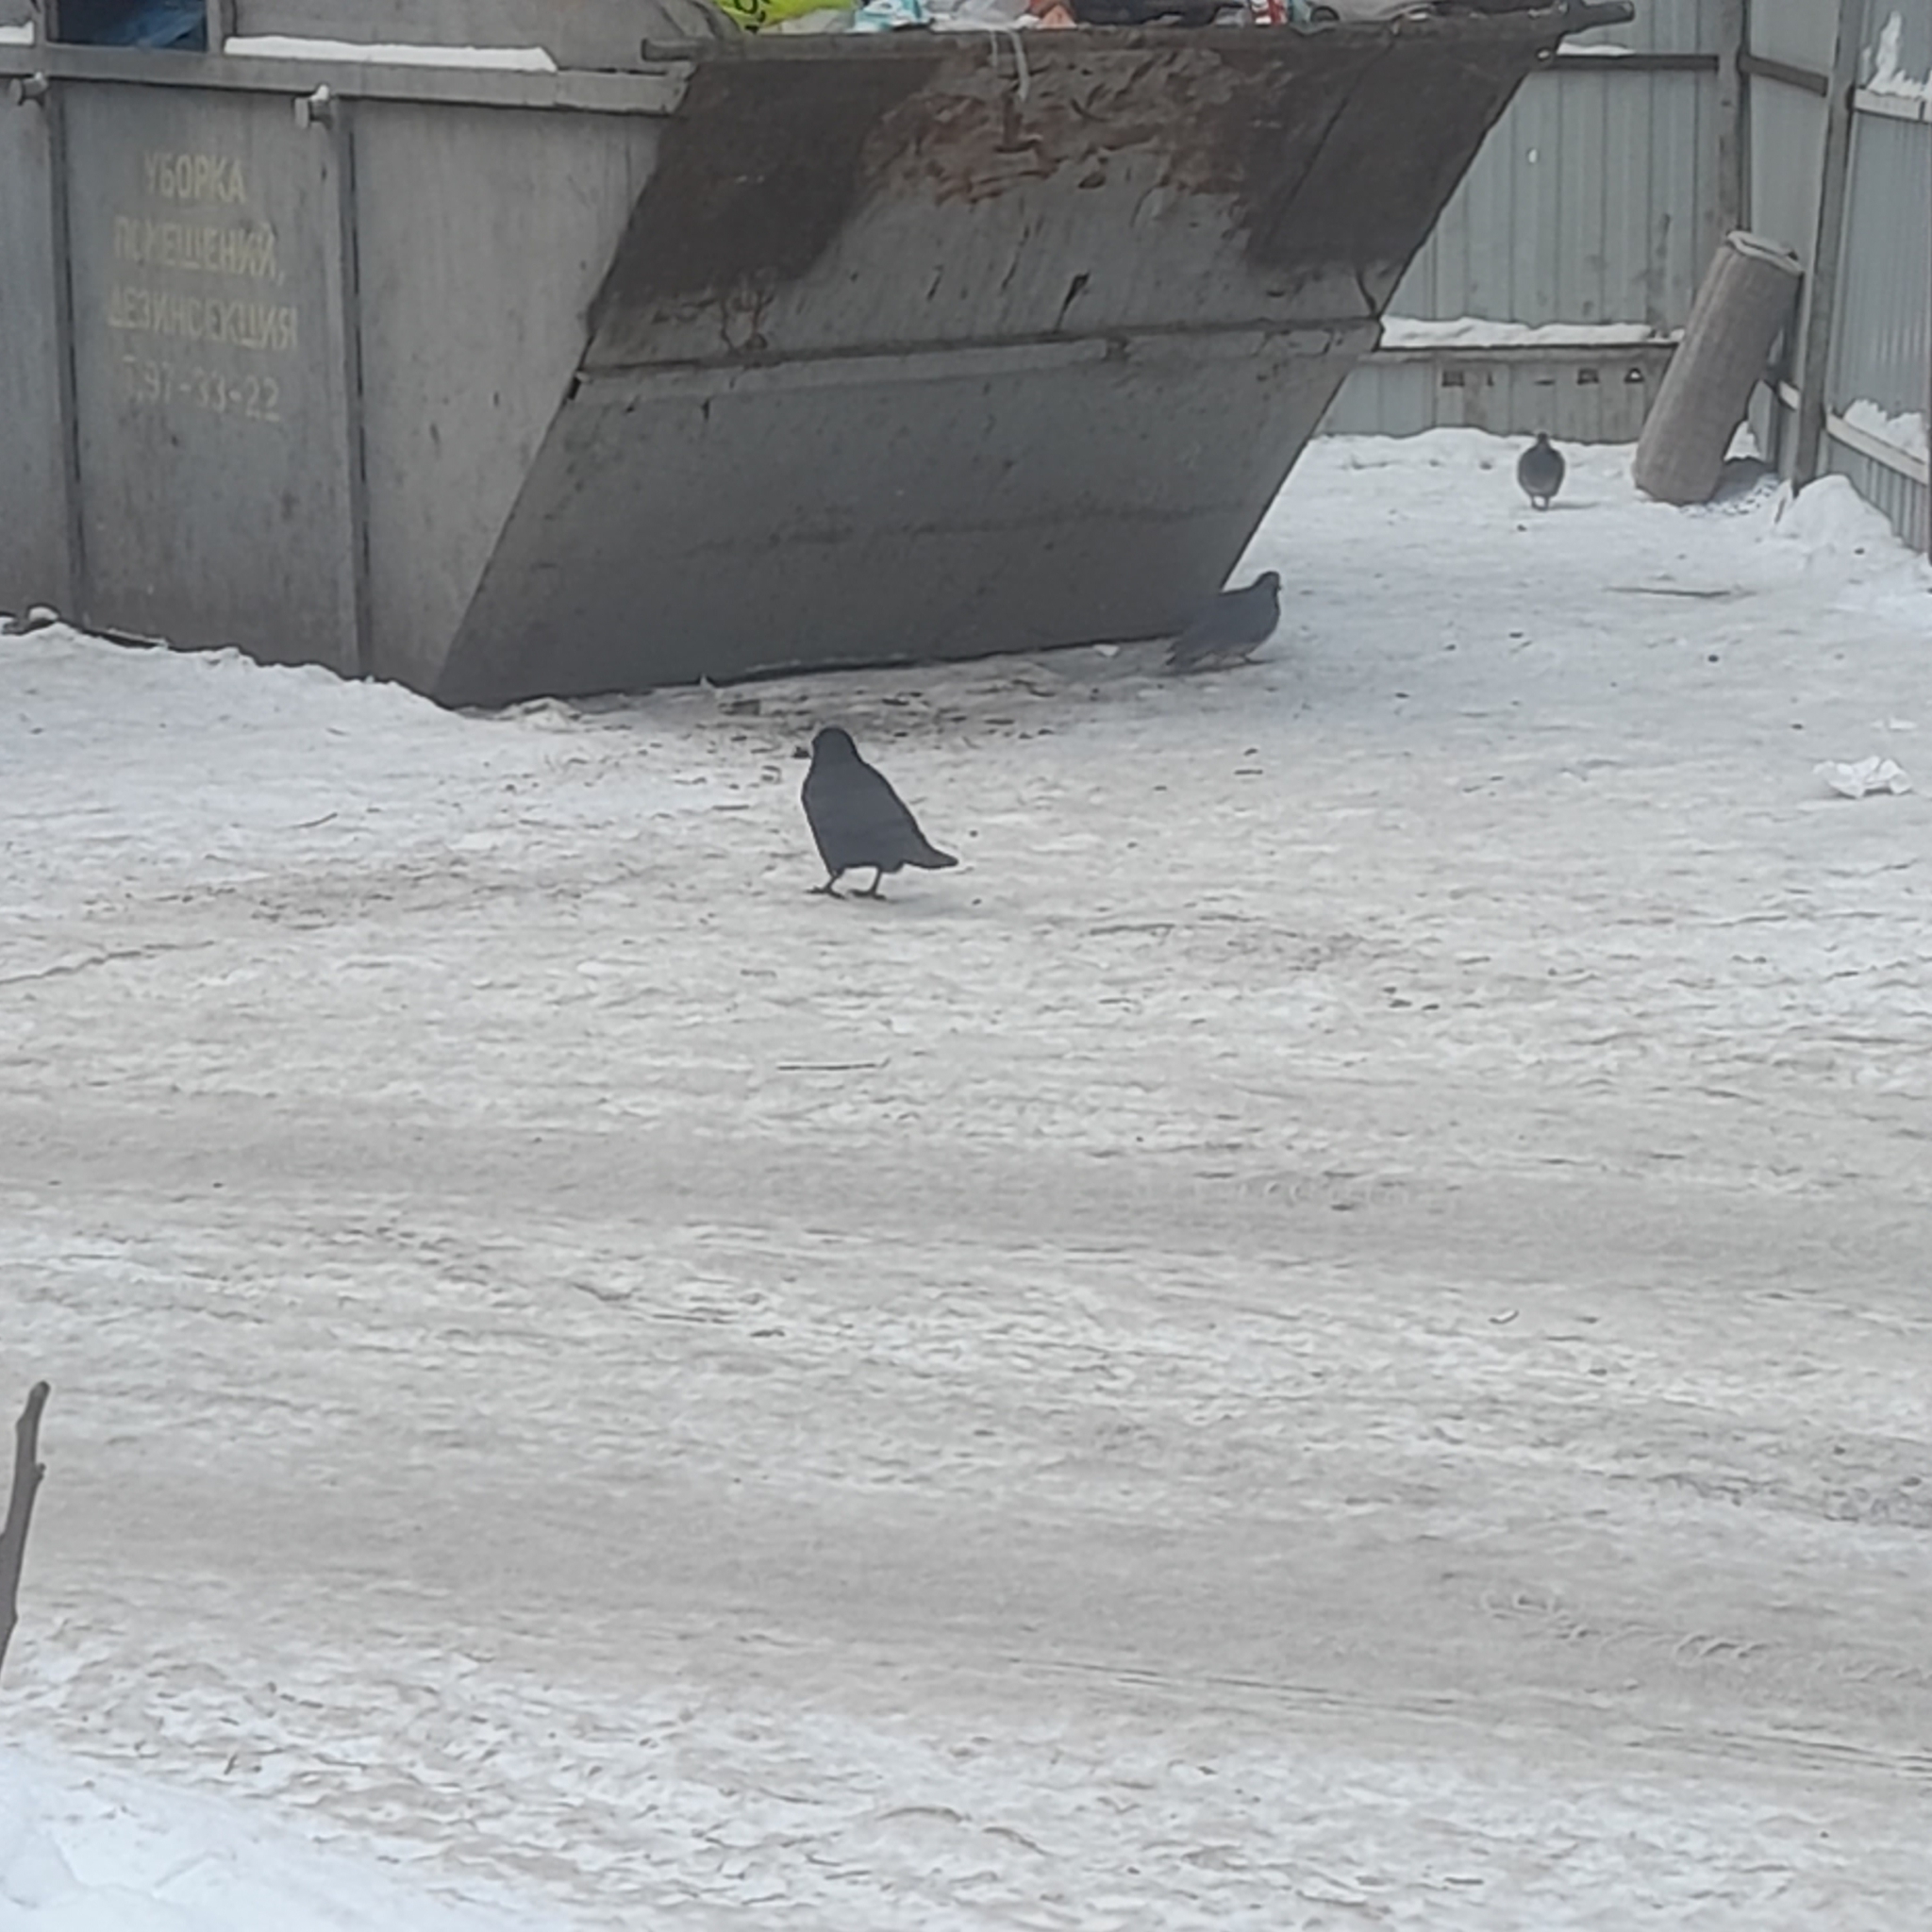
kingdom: Animalia
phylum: Chordata
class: Aves
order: Passeriformes
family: Corvidae
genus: Corvus
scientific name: Corvus frugilegus
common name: Rook
